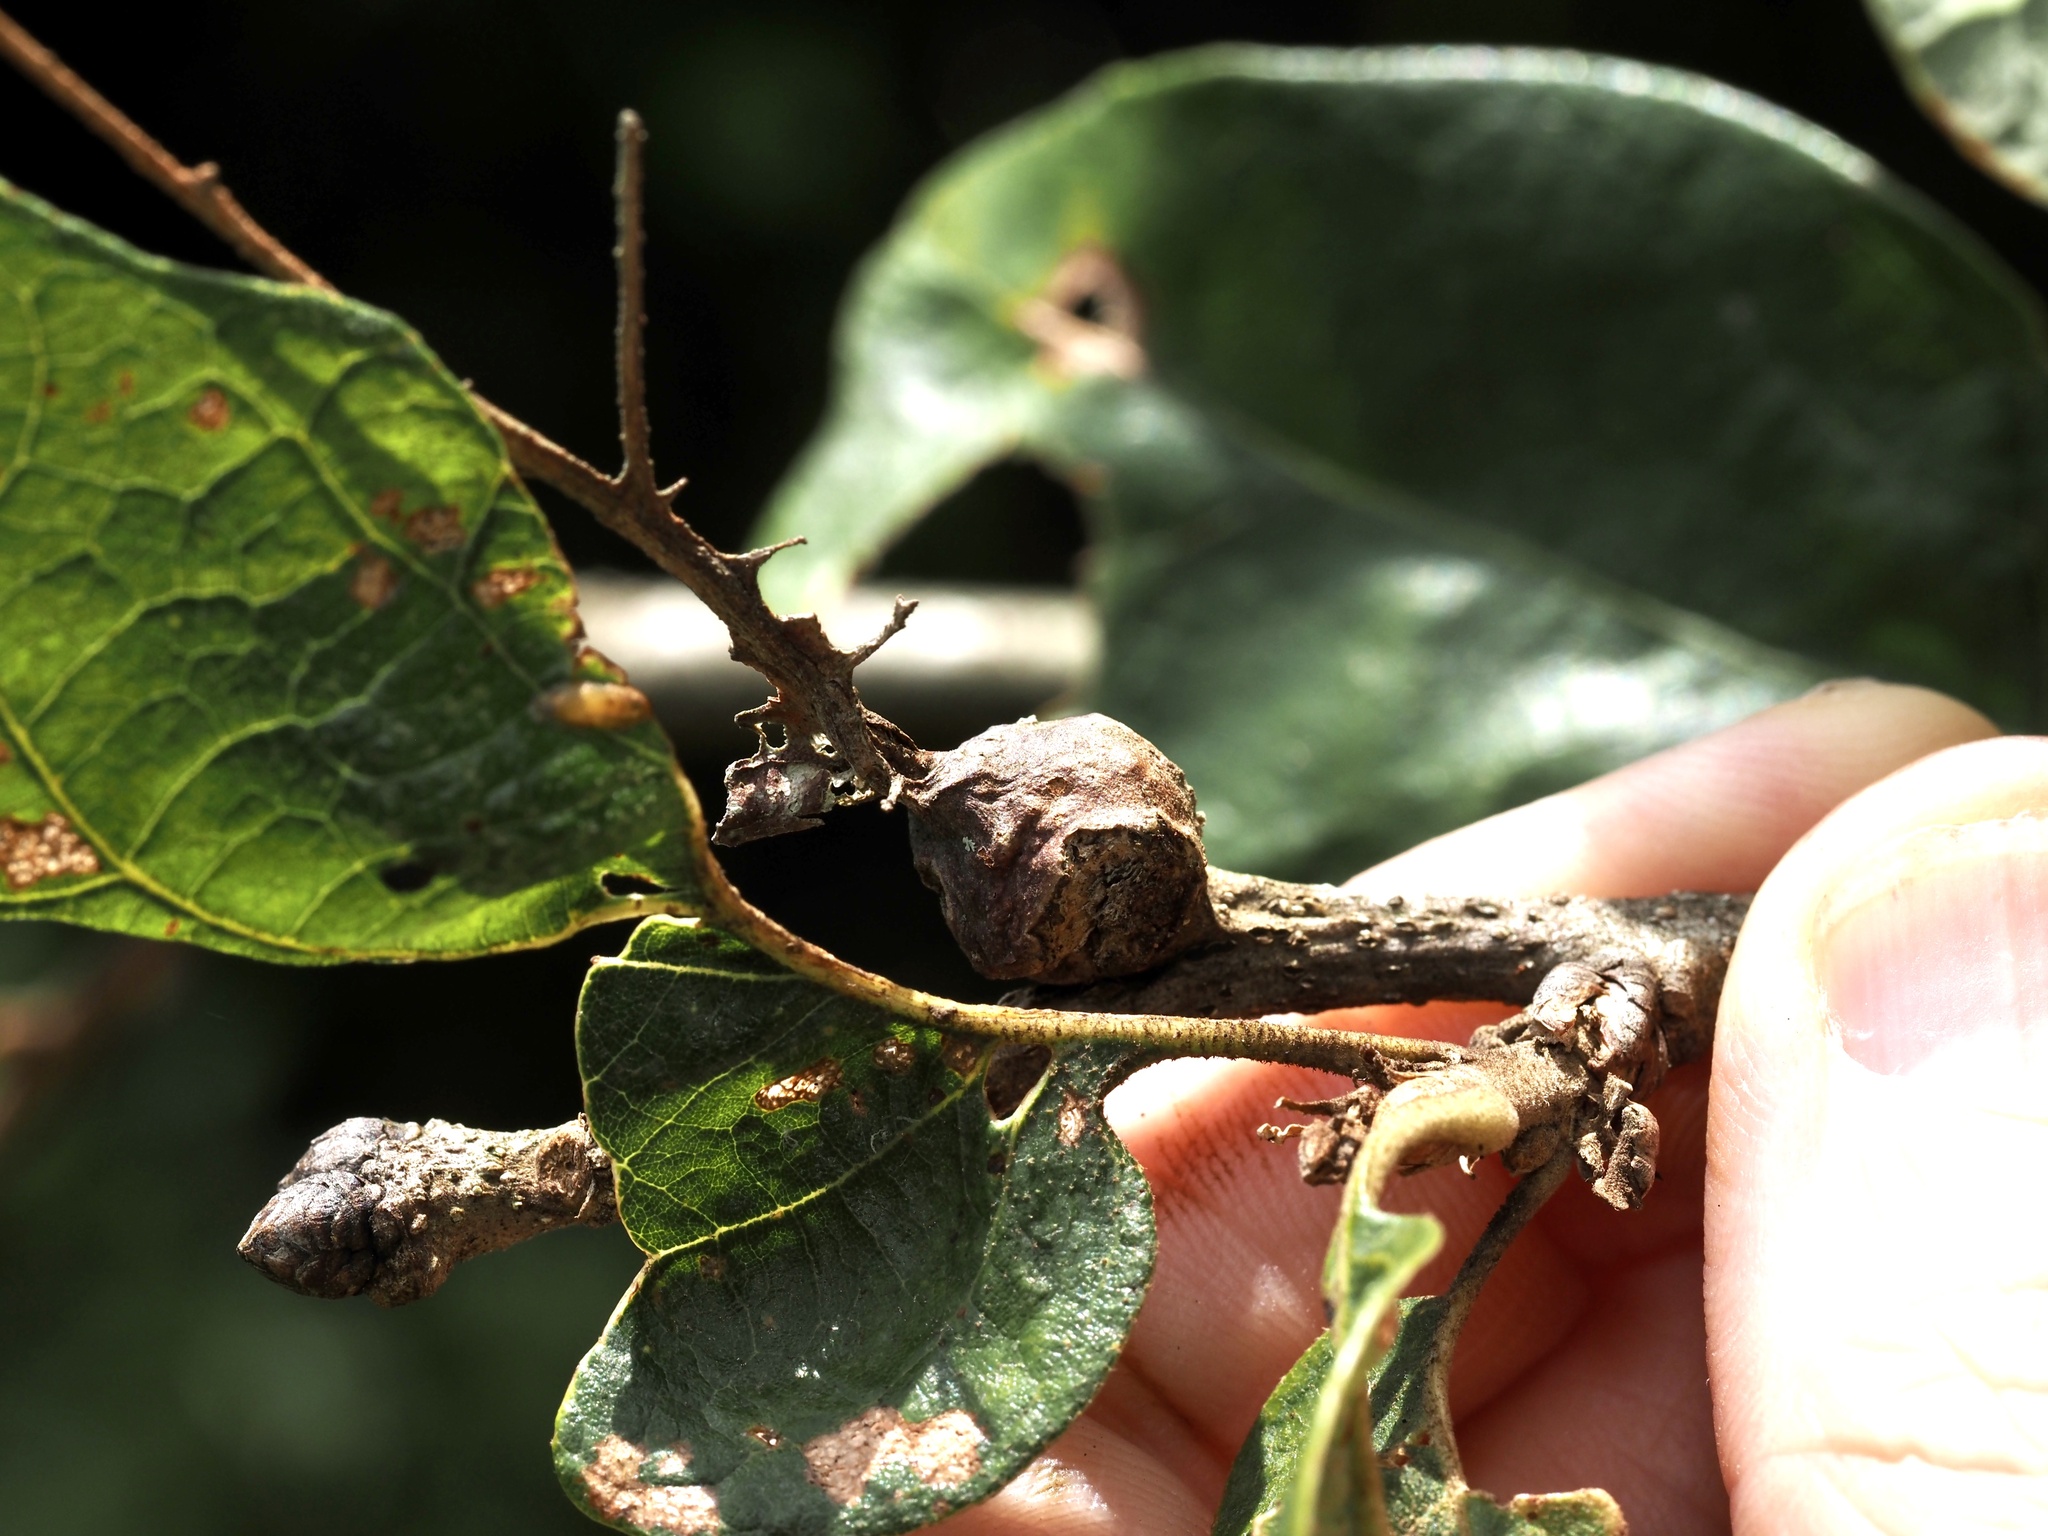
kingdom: Animalia
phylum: Arthropoda
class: Insecta
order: Hymenoptera
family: Cynipidae
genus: Andricus
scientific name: Andricus
